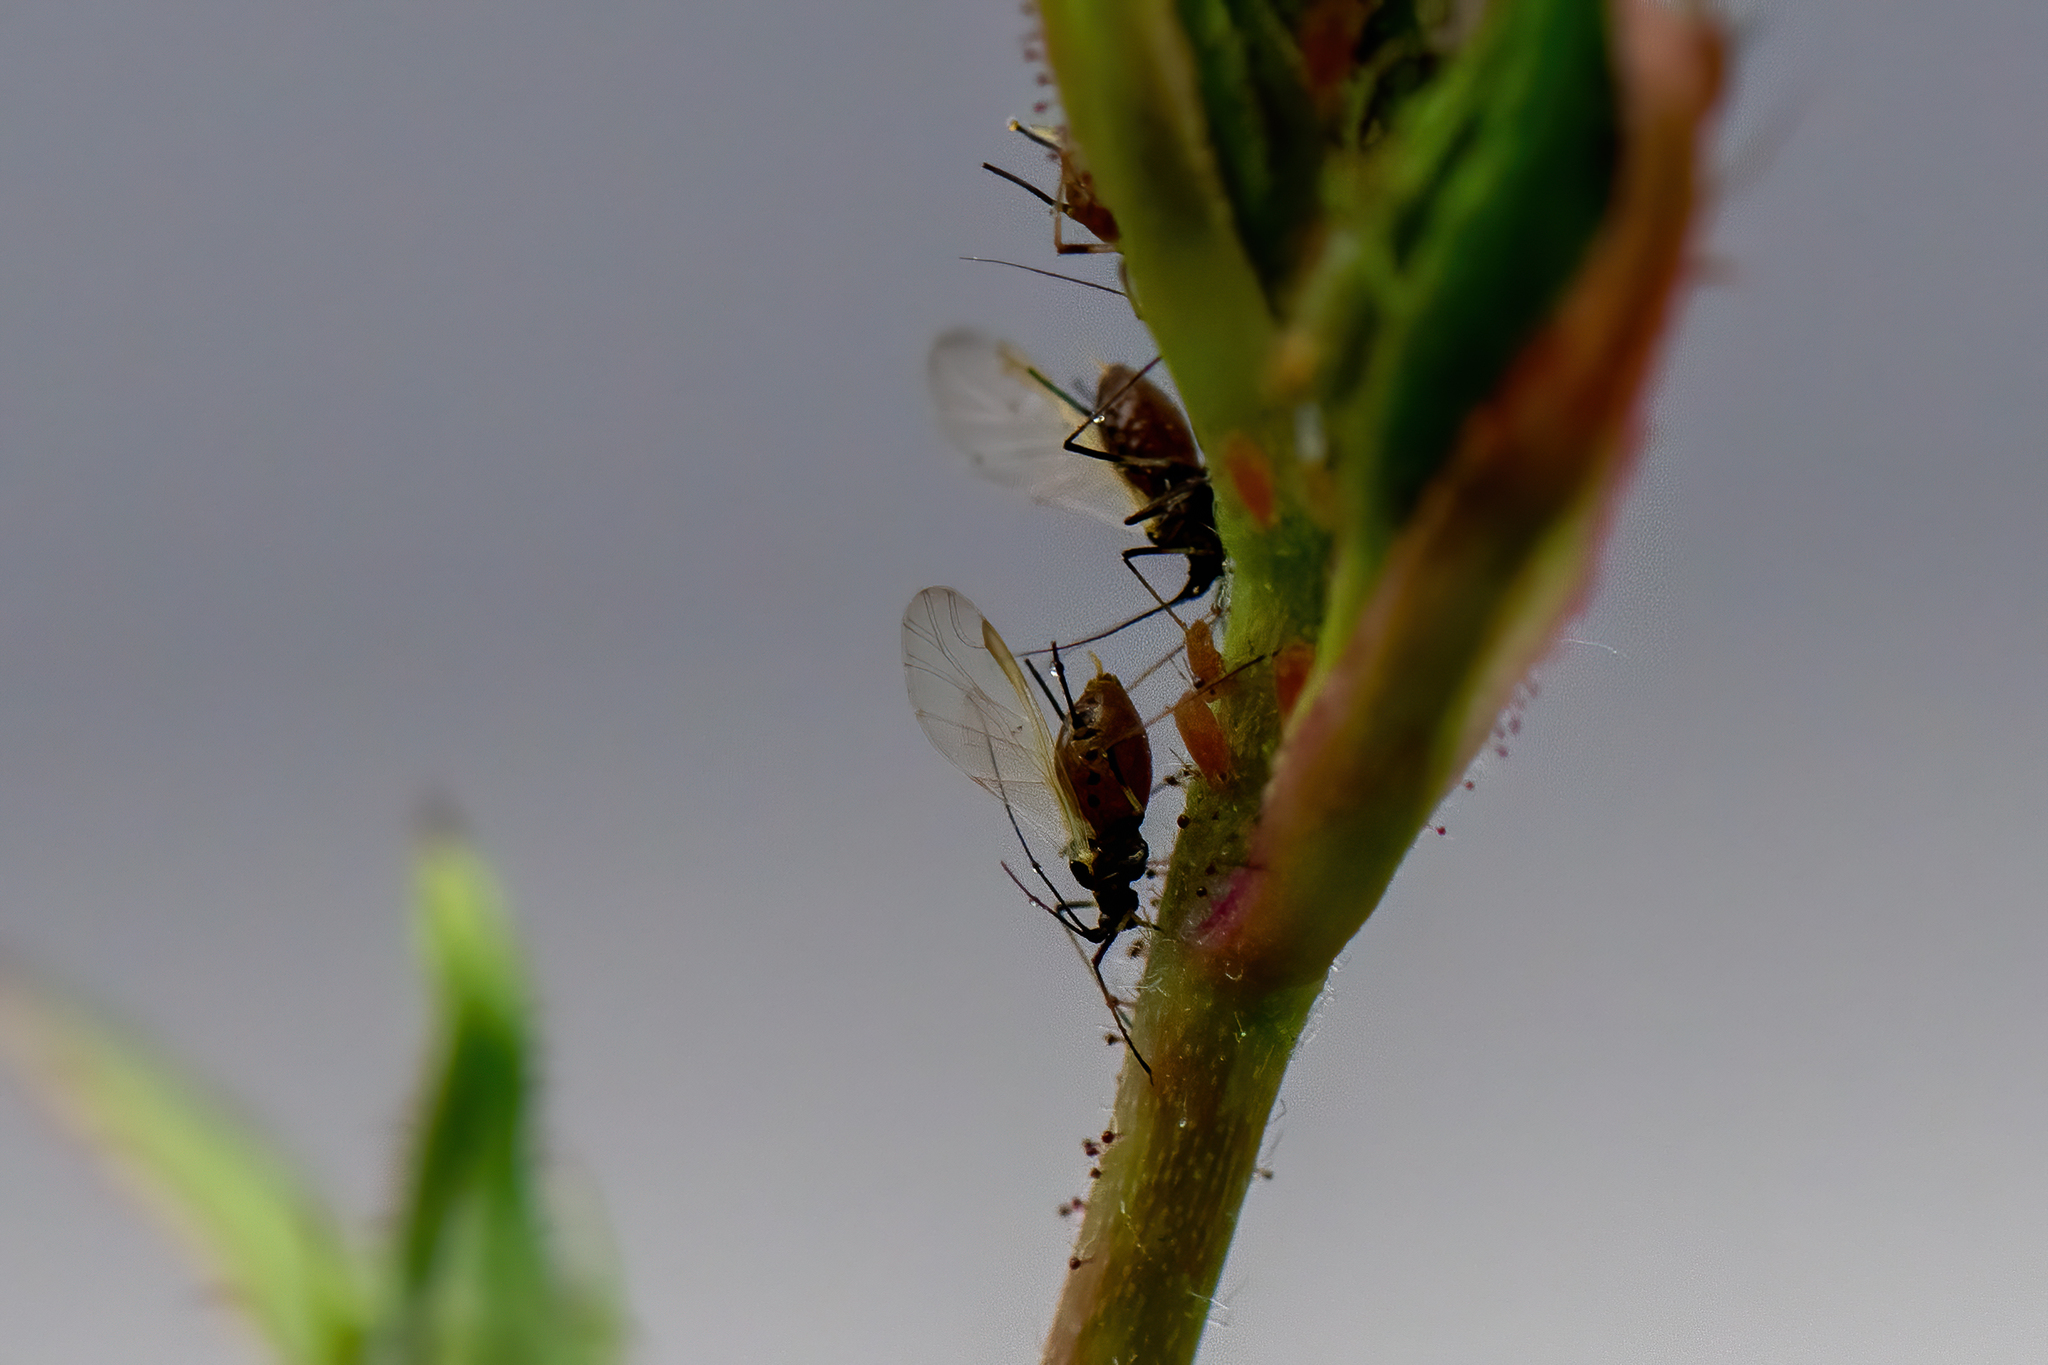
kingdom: Animalia
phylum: Arthropoda
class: Insecta
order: Hemiptera
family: Aphididae
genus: Macrosiphum
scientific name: Macrosiphum rosae
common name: Rose aphid
